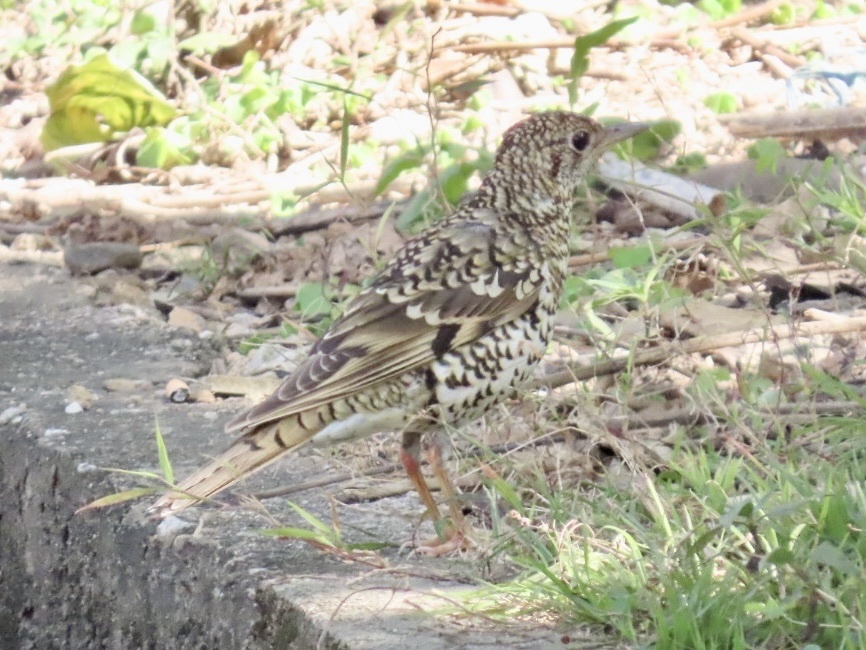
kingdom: Animalia
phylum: Chordata
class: Aves
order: Passeriformes
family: Turdidae
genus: Zoothera
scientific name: Zoothera aurea
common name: White's thrush
